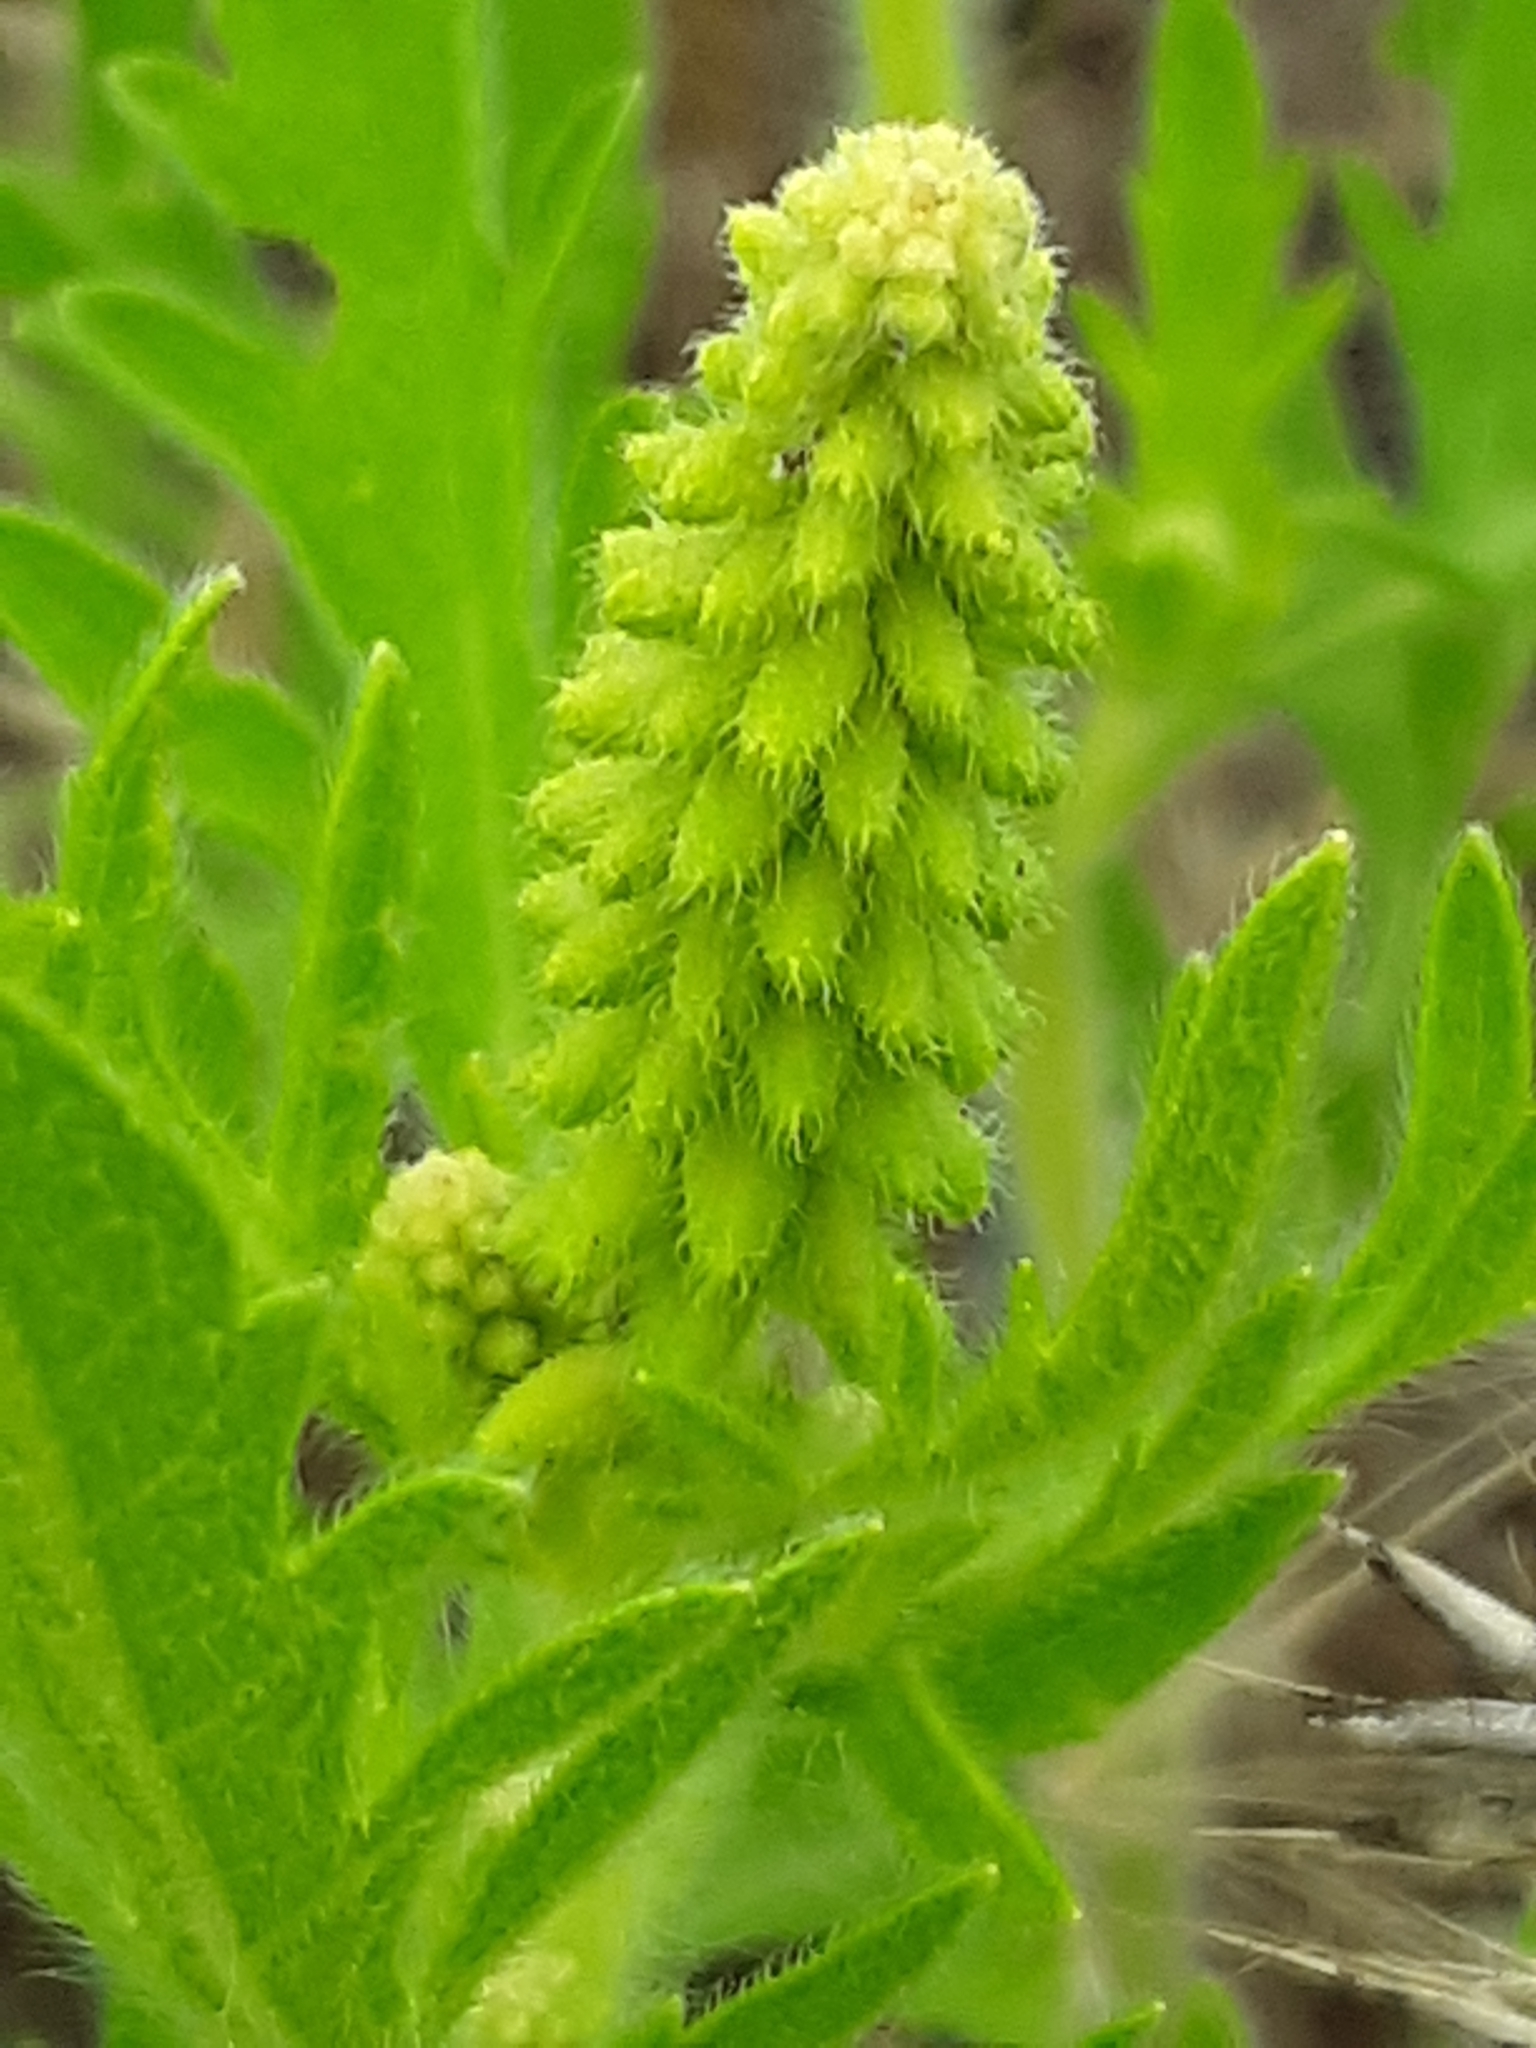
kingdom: Plantae
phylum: Tracheophyta
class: Magnoliopsida
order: Asterales
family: Asteraceae
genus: Ambrosia
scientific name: Ambrosia psilostachya
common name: Perennial ragweed
